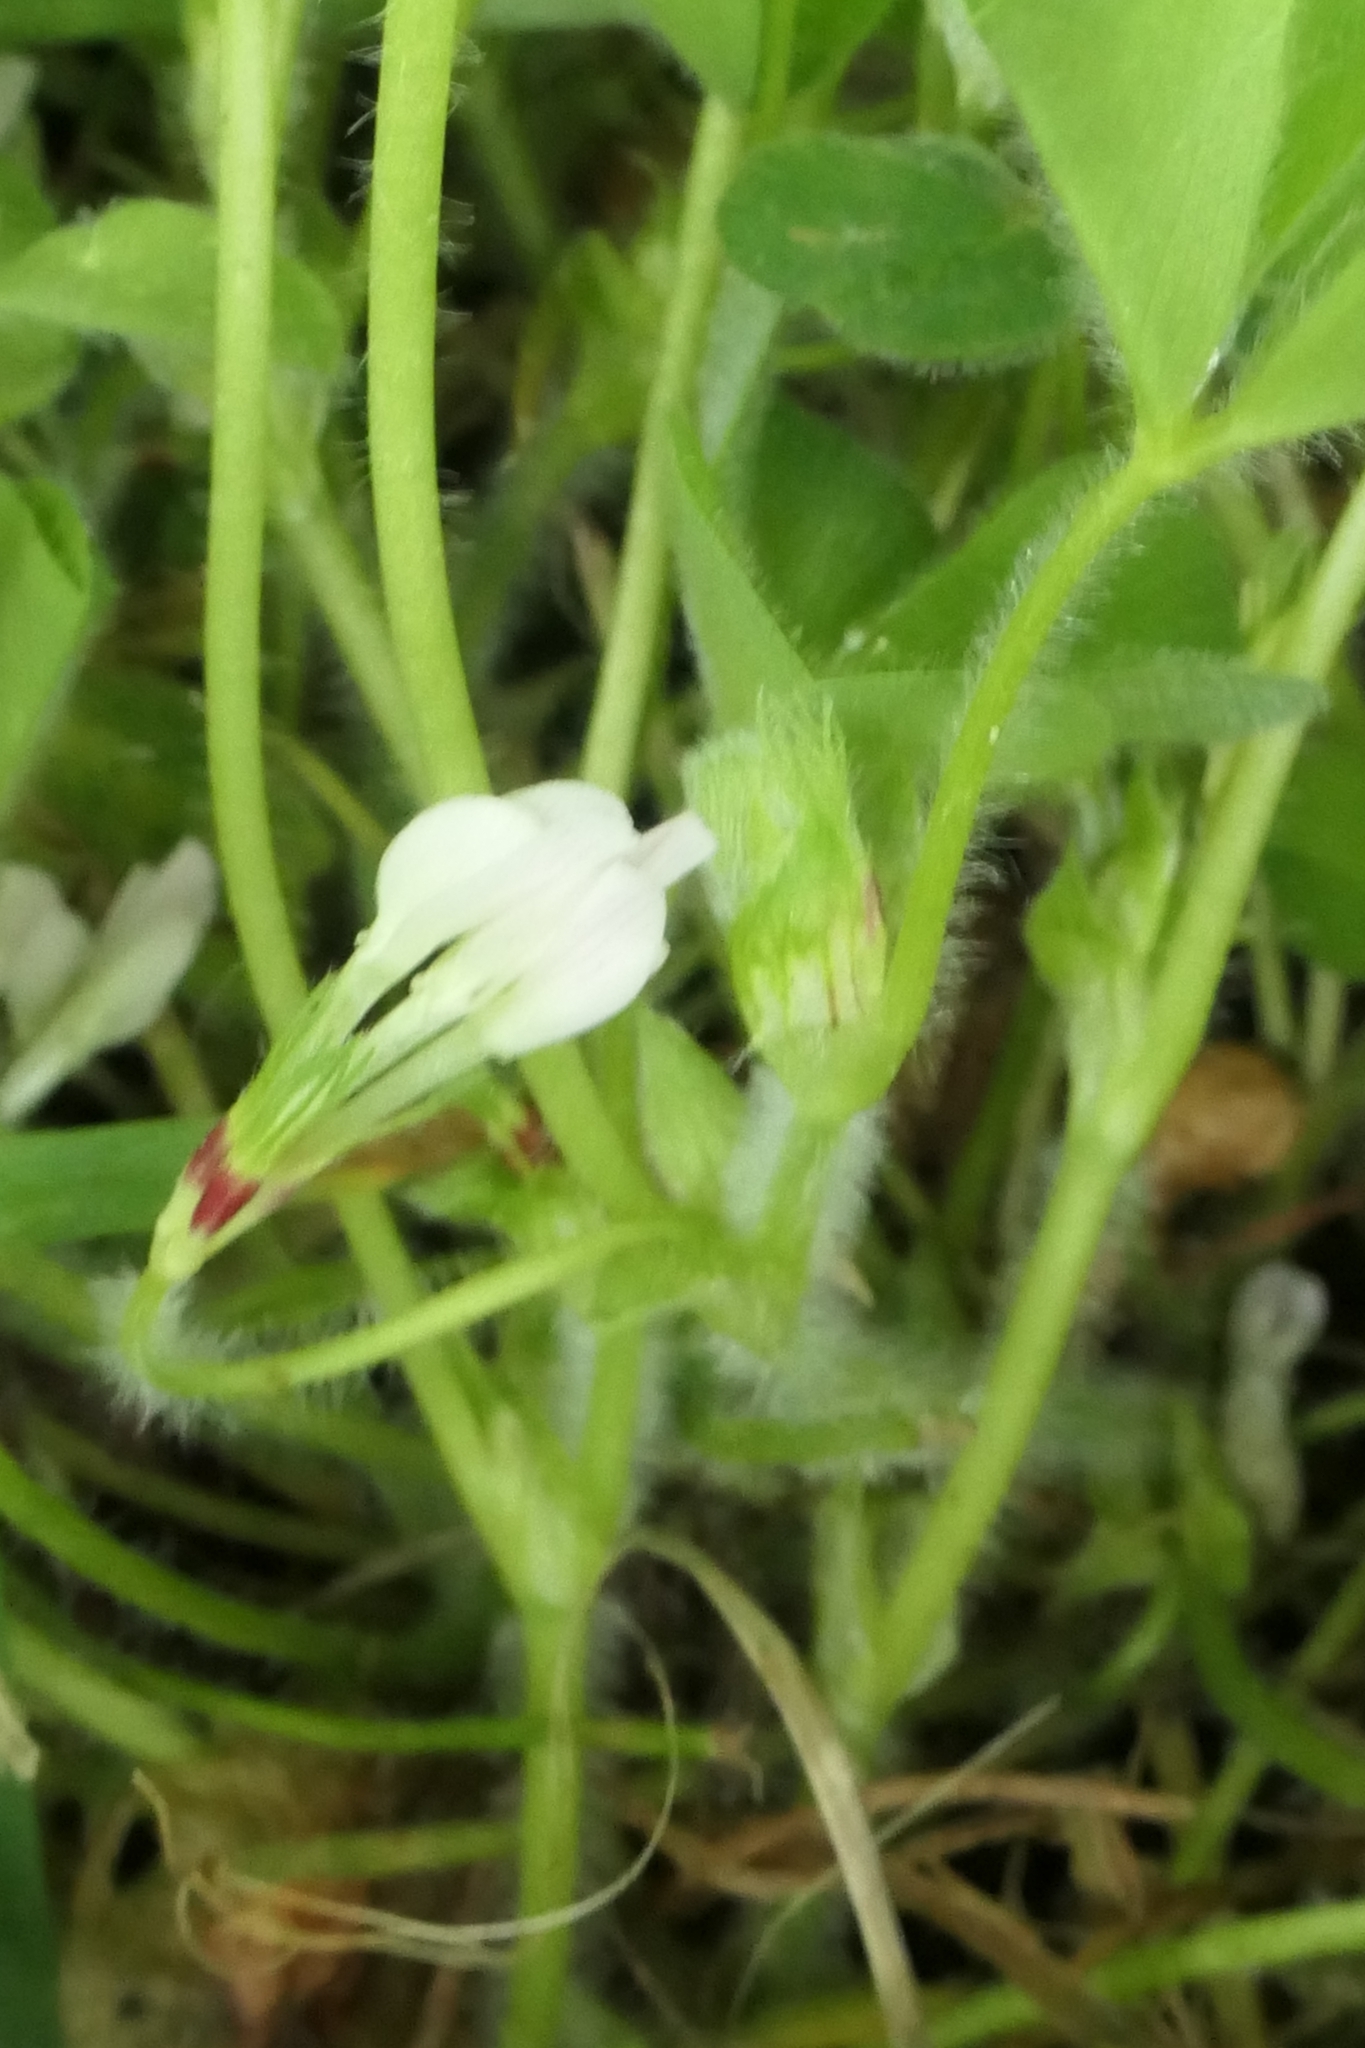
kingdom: Animalia
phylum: Arthropoda
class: Insecta
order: Coleoptera
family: Curculionidae
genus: Exomias
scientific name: Exomias pellucidus
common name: Hairy spider weevil
